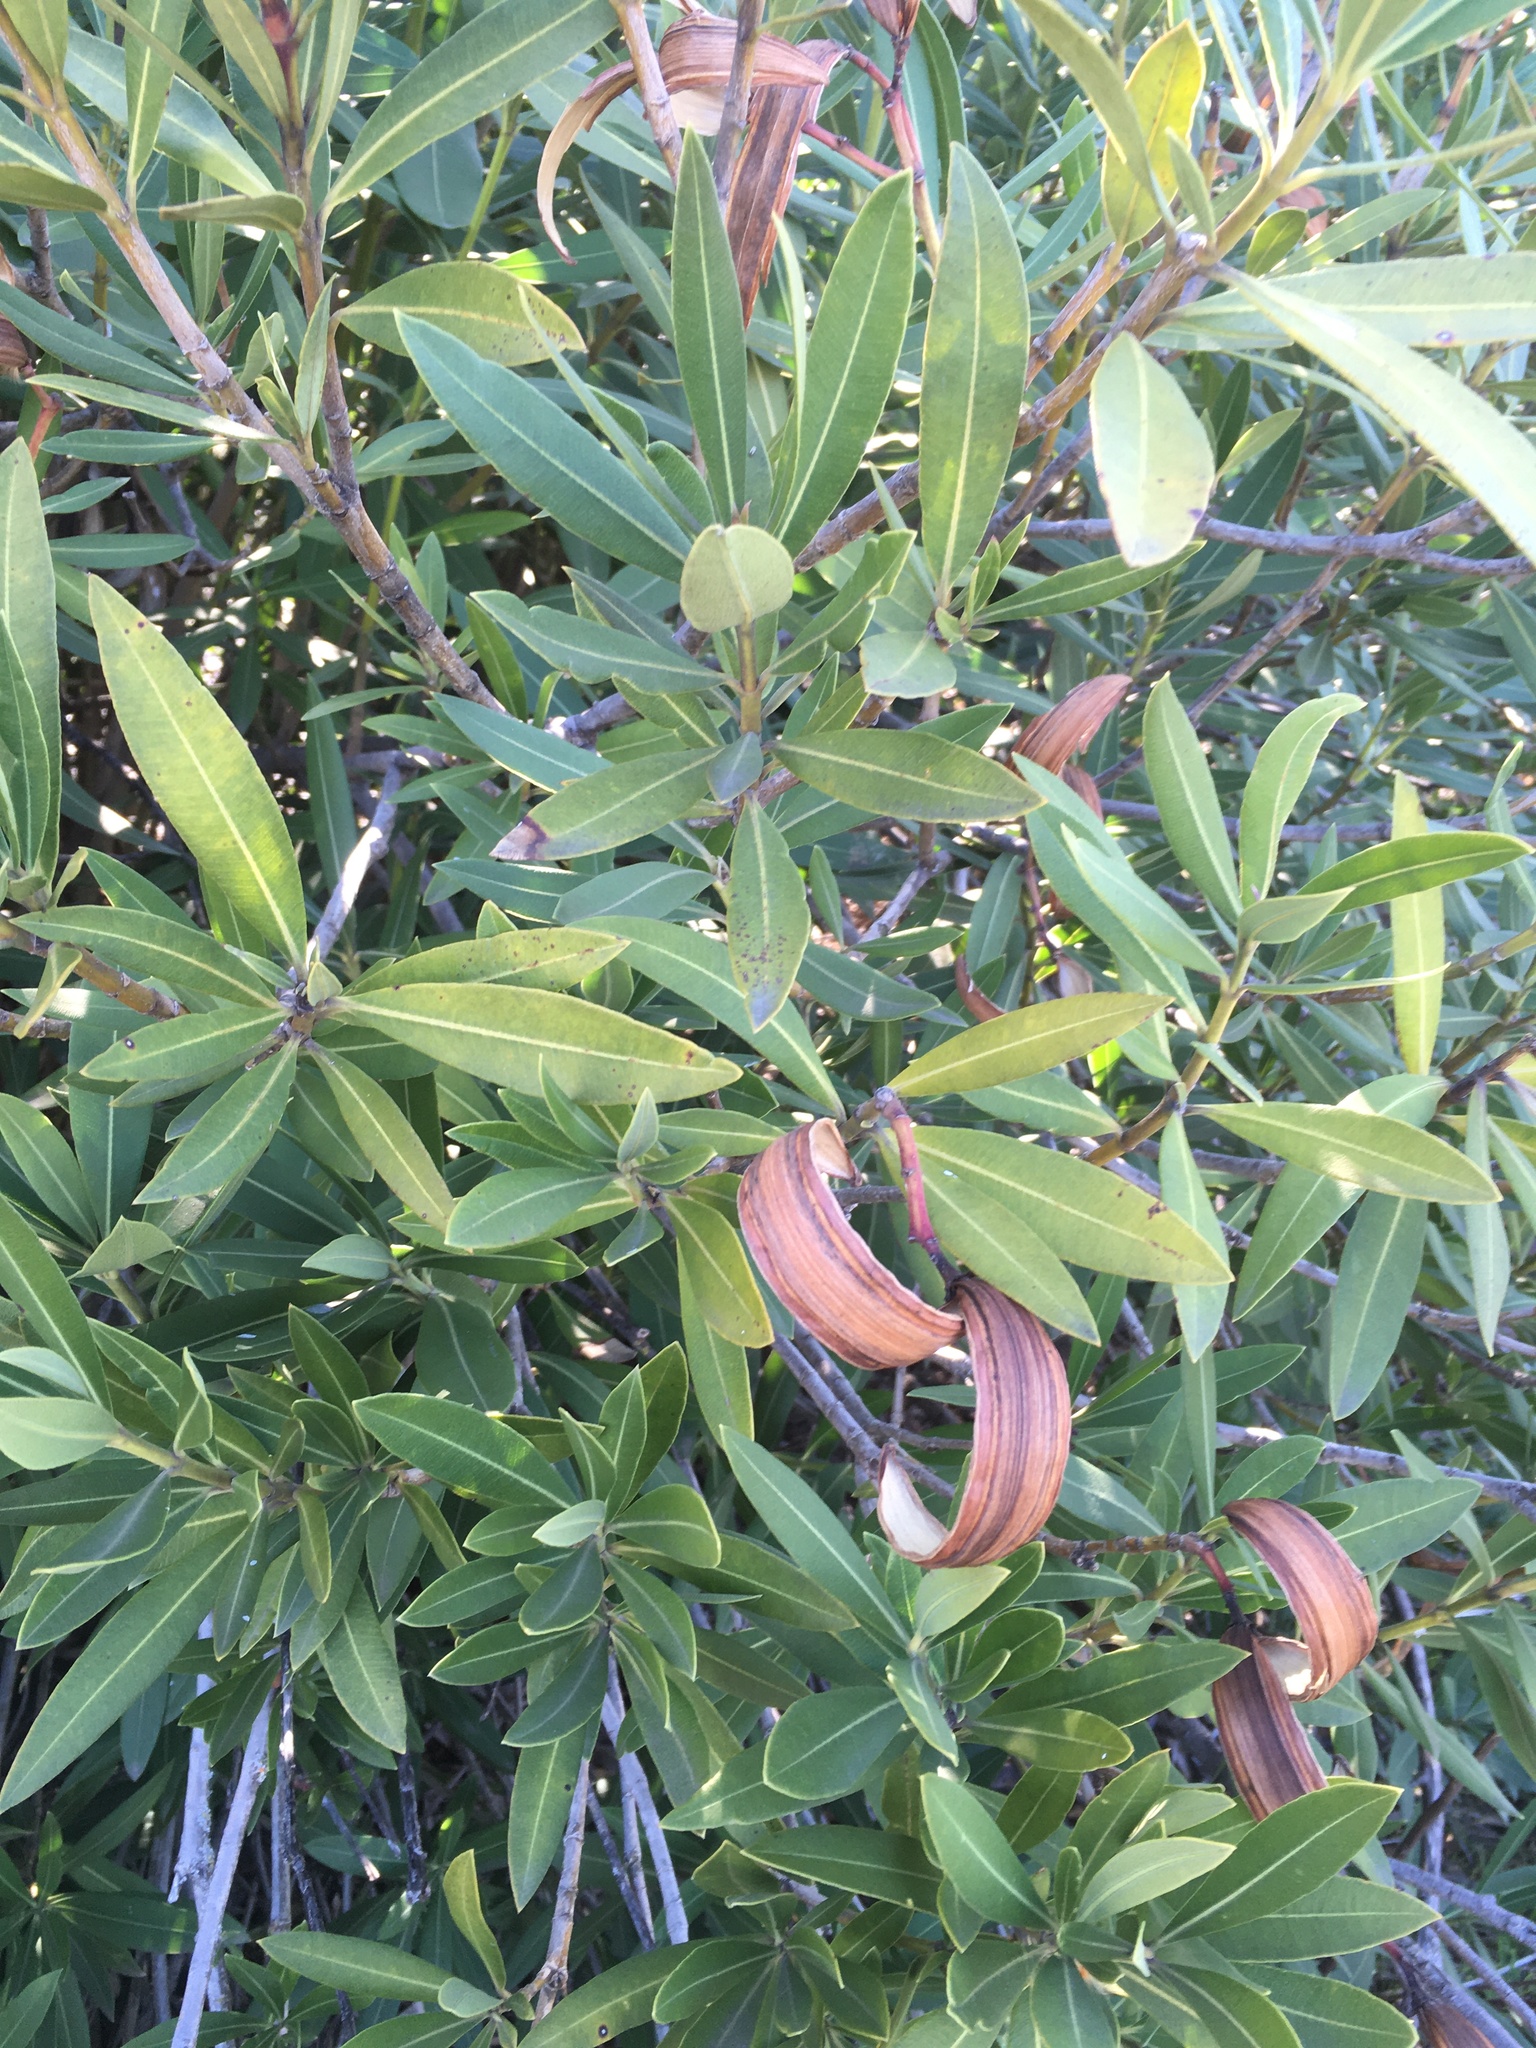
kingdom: Plantae
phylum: Tracheophyta
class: Magnoliopsida
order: Gentianales
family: Apocynaceae
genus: Nerium
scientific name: Nerium oleander
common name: Oleander
